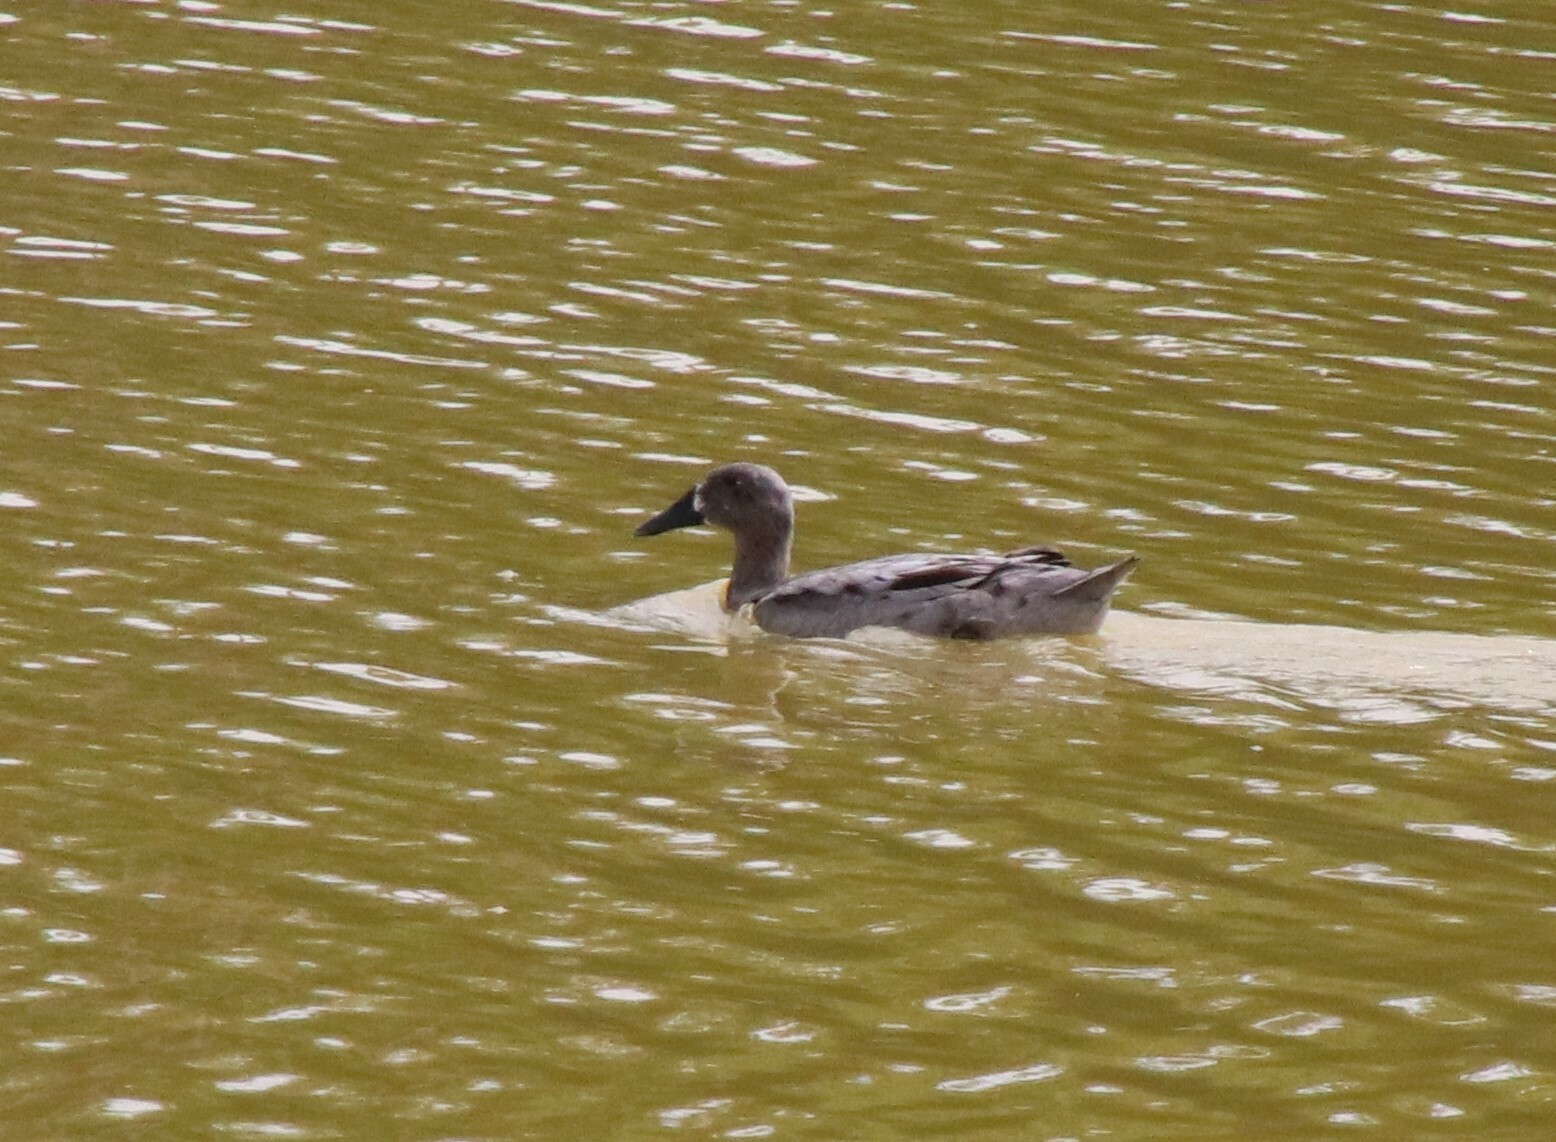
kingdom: Animalia
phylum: Chordata
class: Aves
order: Anseriformes
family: Anatidae
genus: Anas
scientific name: Anas platyrhynchos
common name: Mallard
